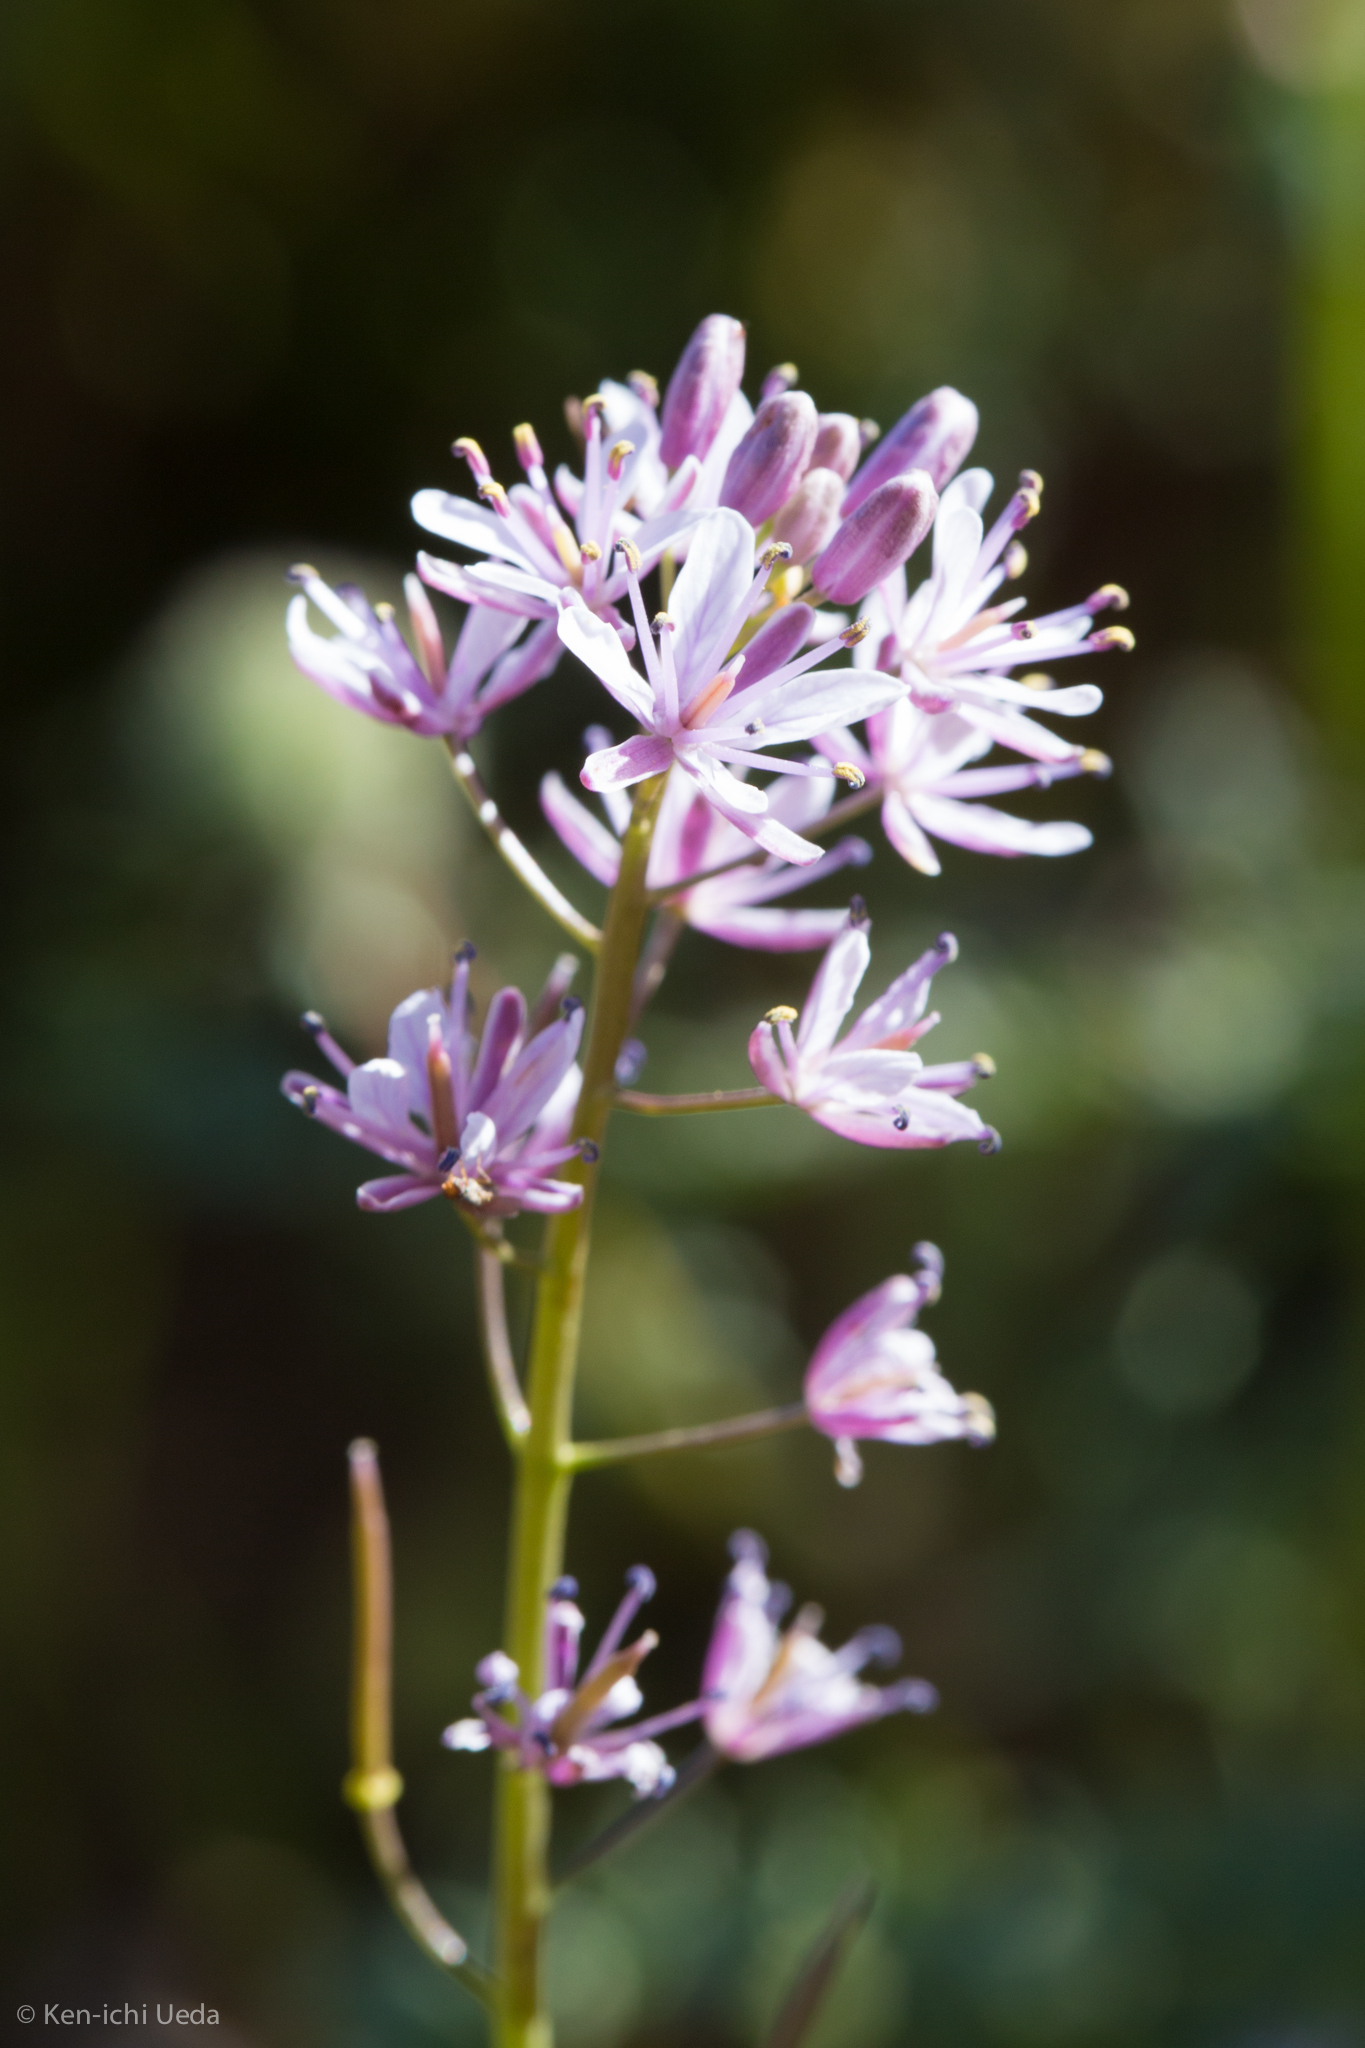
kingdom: Plantae
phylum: Tracheophyta
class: Magnoliopsida
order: Brassicales
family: Brassicaceae
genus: Streptanthus
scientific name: Streptanthus anceps
